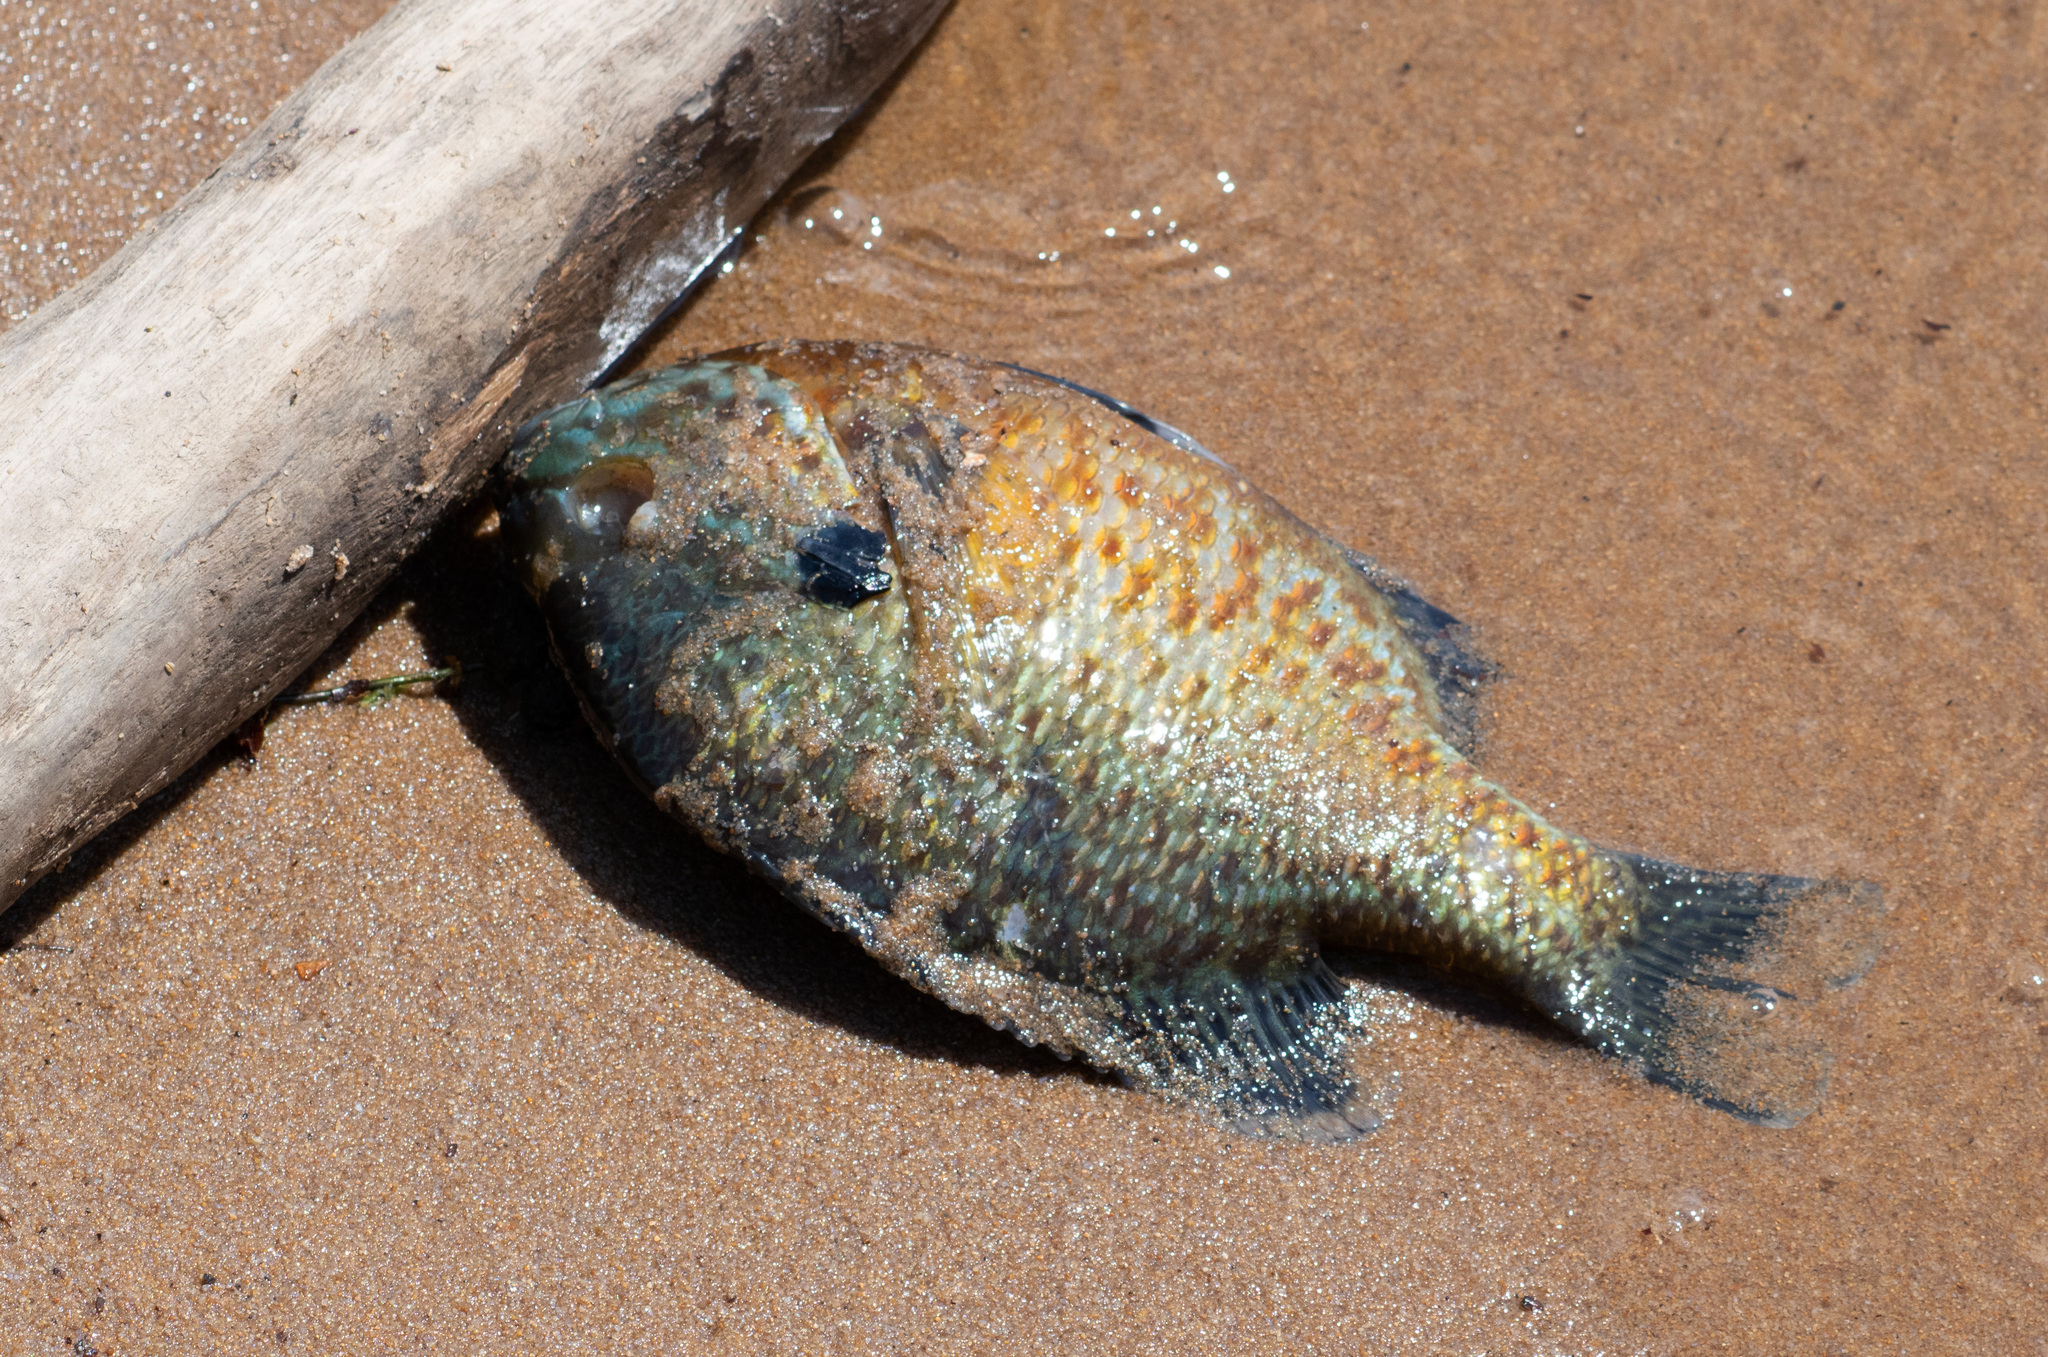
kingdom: Animalia
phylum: Chordata
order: Perciformes
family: Centrarchidae
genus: Lepomis
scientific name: Lepomis gibbosus
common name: Pumpkinseed
